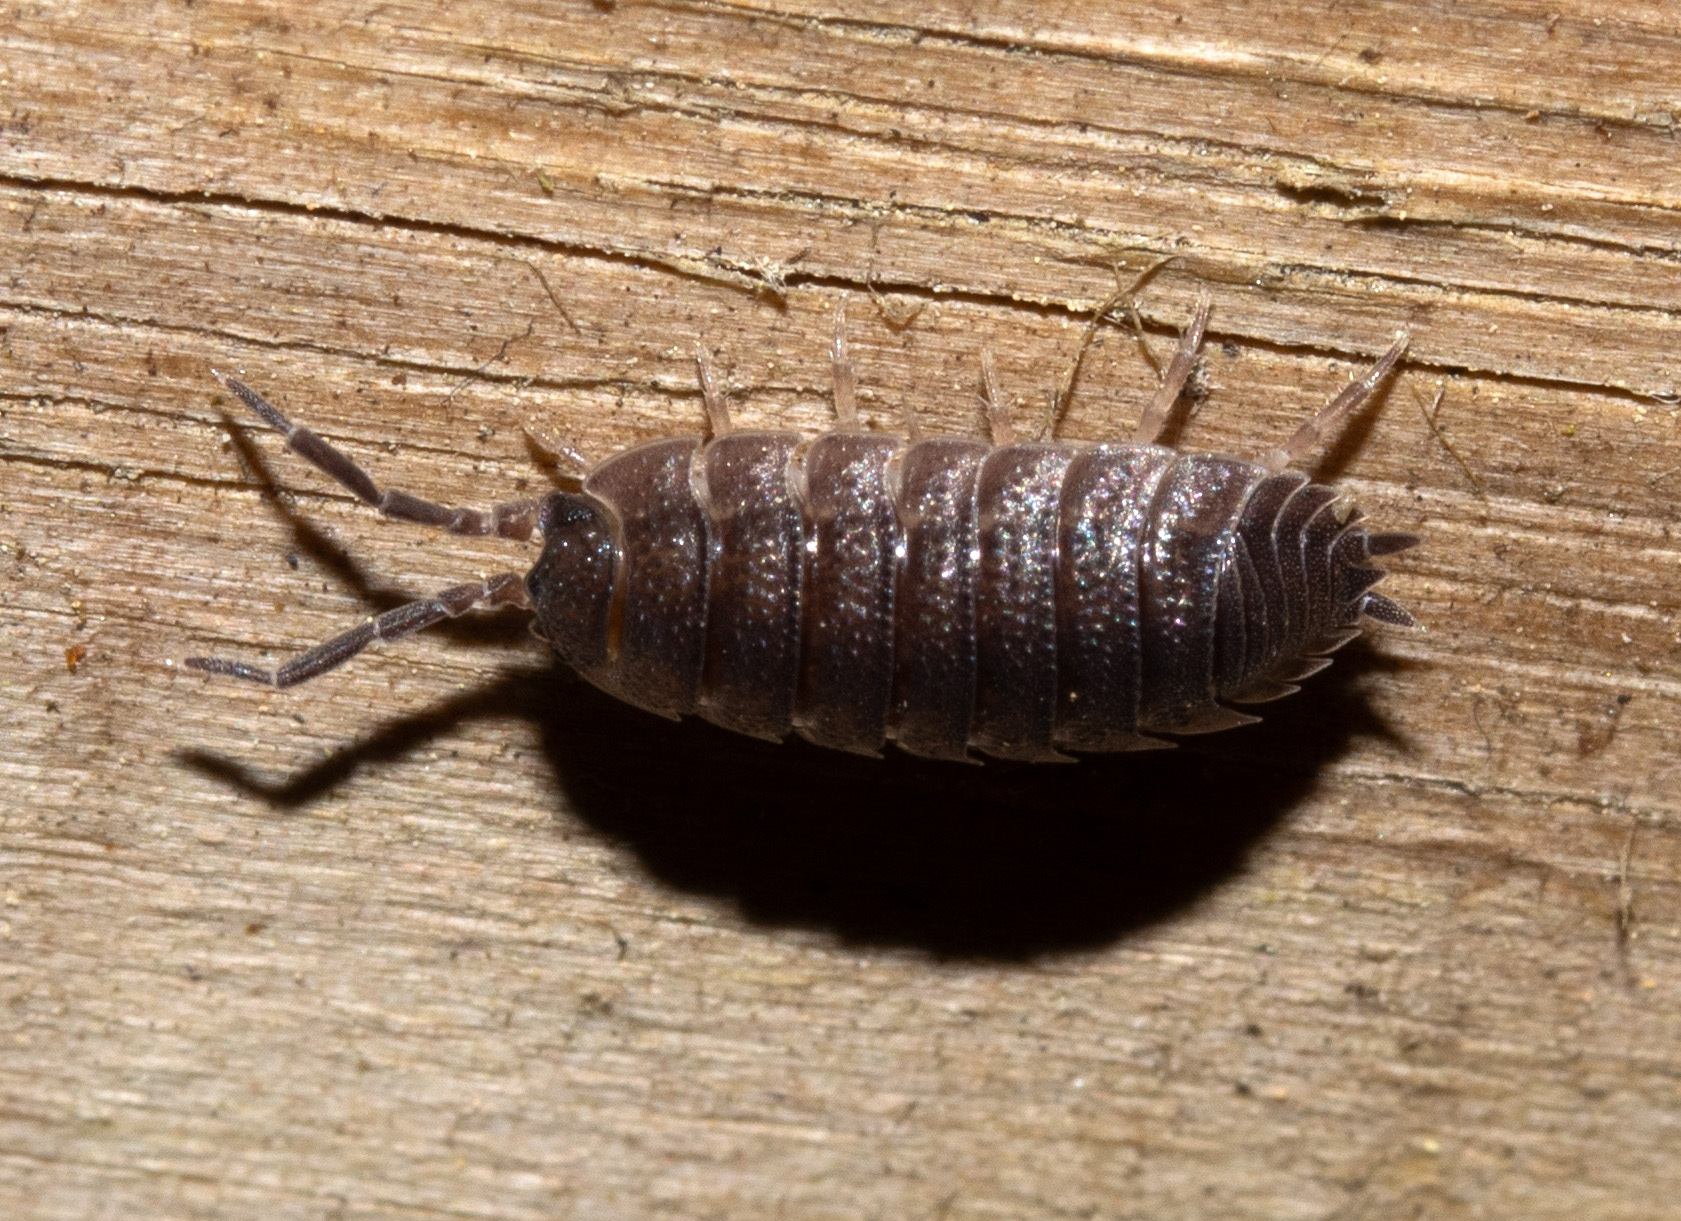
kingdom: Animalia
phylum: Arthropoda
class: Malacostraca
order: Isopoda
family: Porcellionidae
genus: Porcellio
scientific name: Porcellio scaber
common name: Common rough woodlouse
